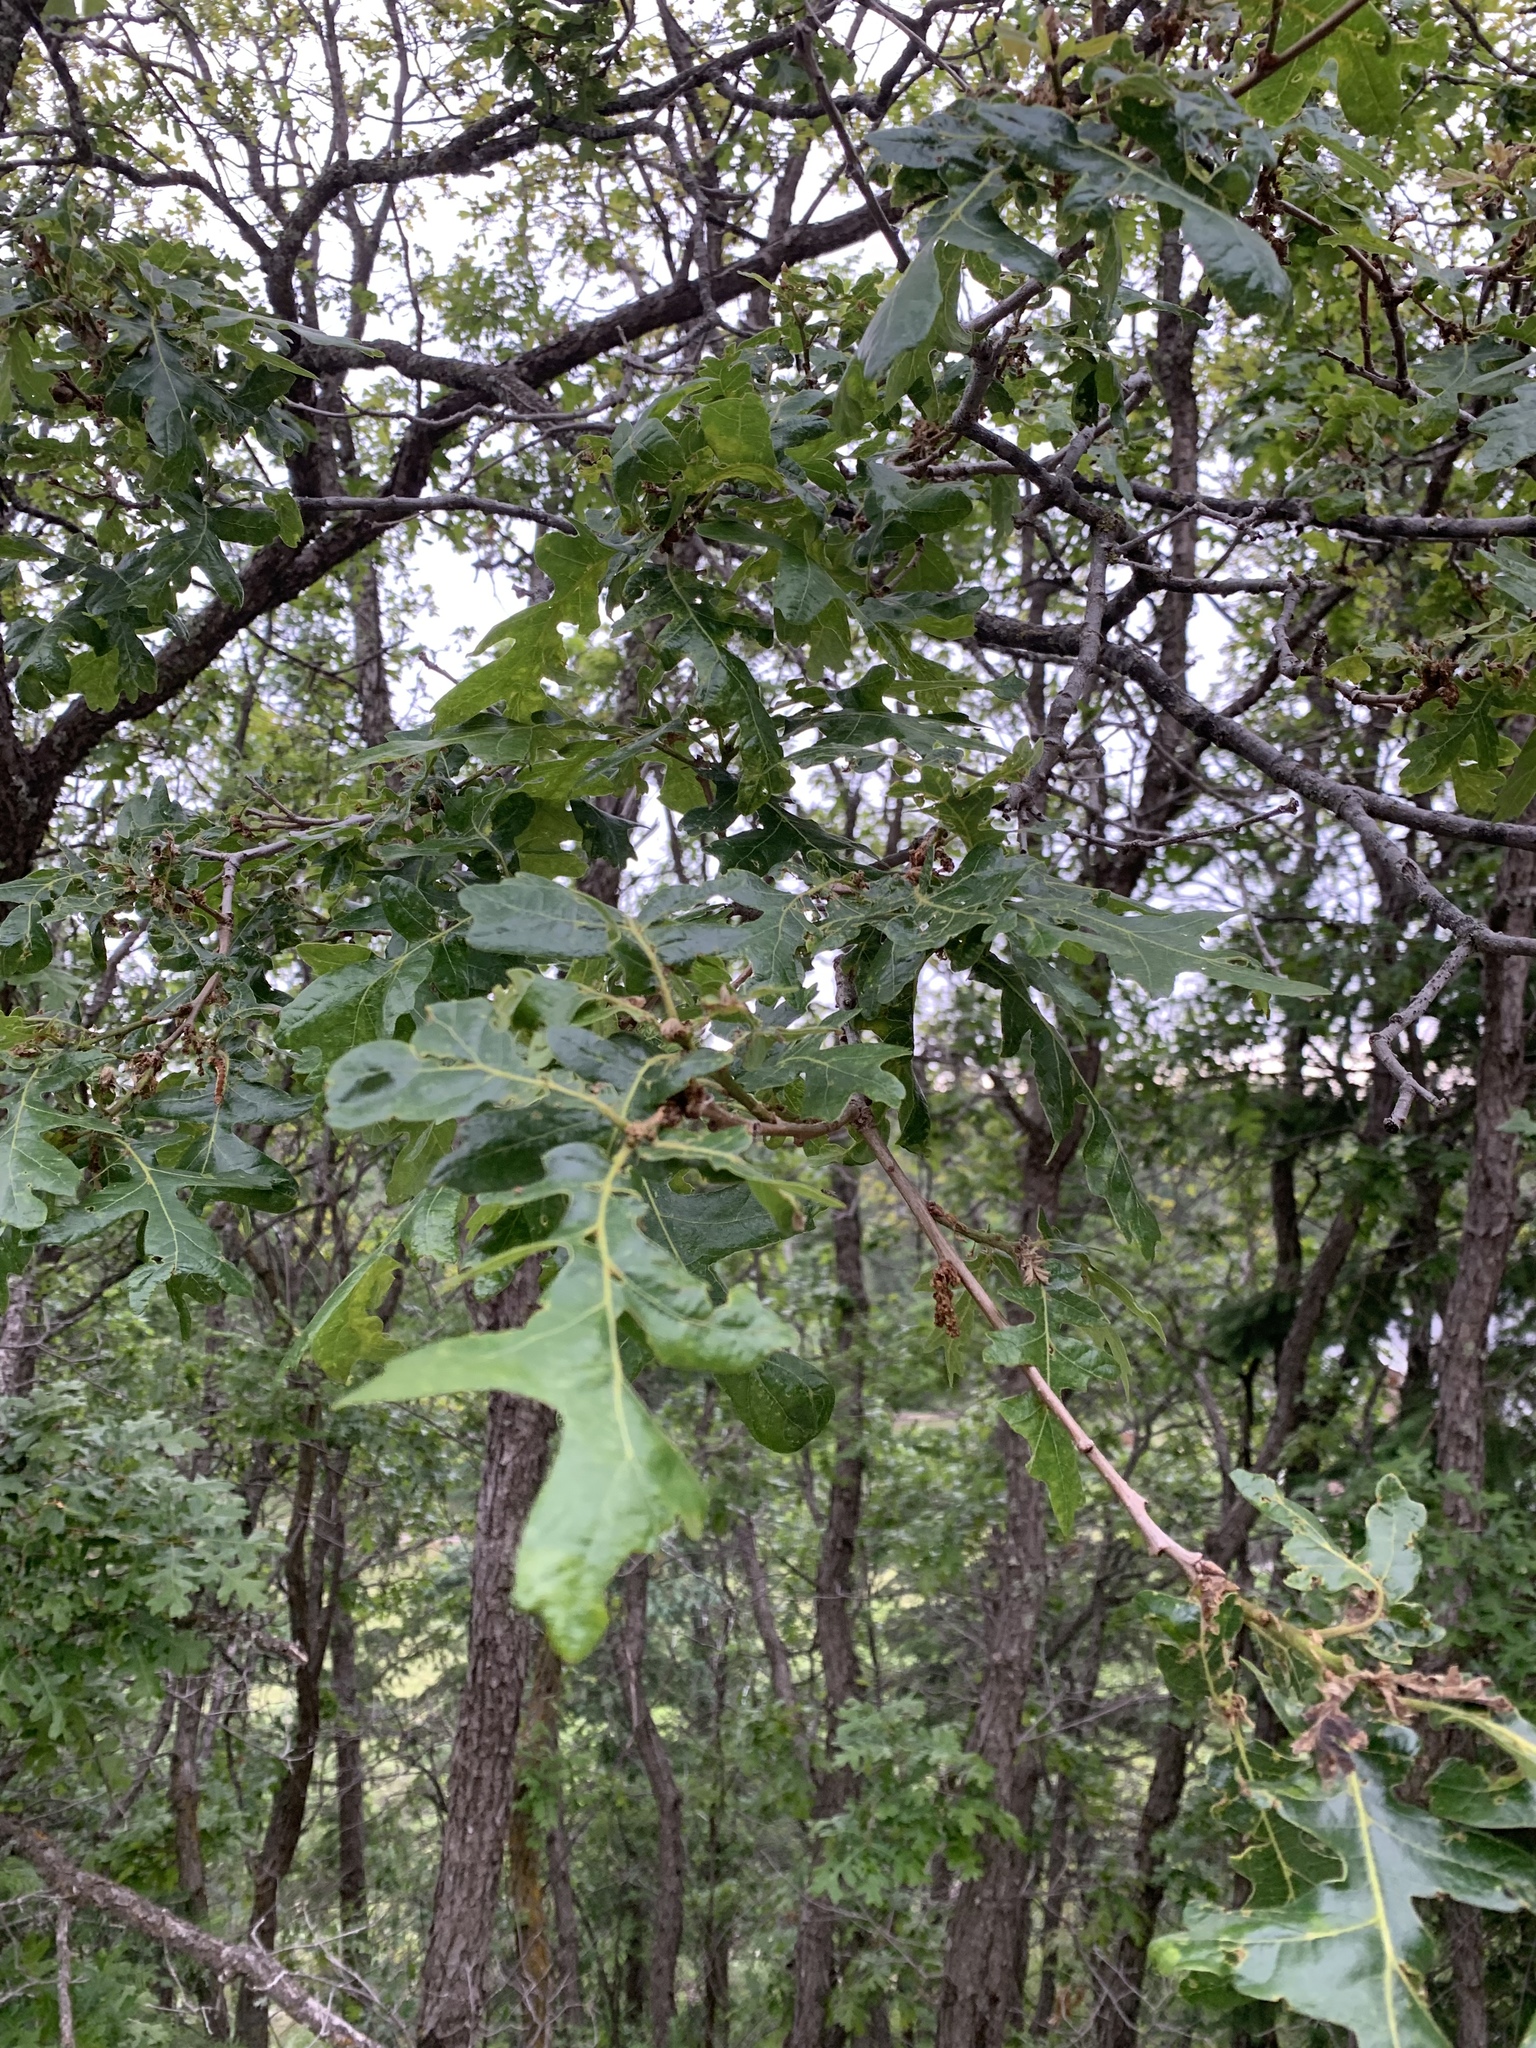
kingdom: Plantae
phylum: Tracheophyta
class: Magnoliopsida
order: Fagales
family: Fagaceae
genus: Quercus
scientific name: Quercus gambelii
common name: Gambel oak
